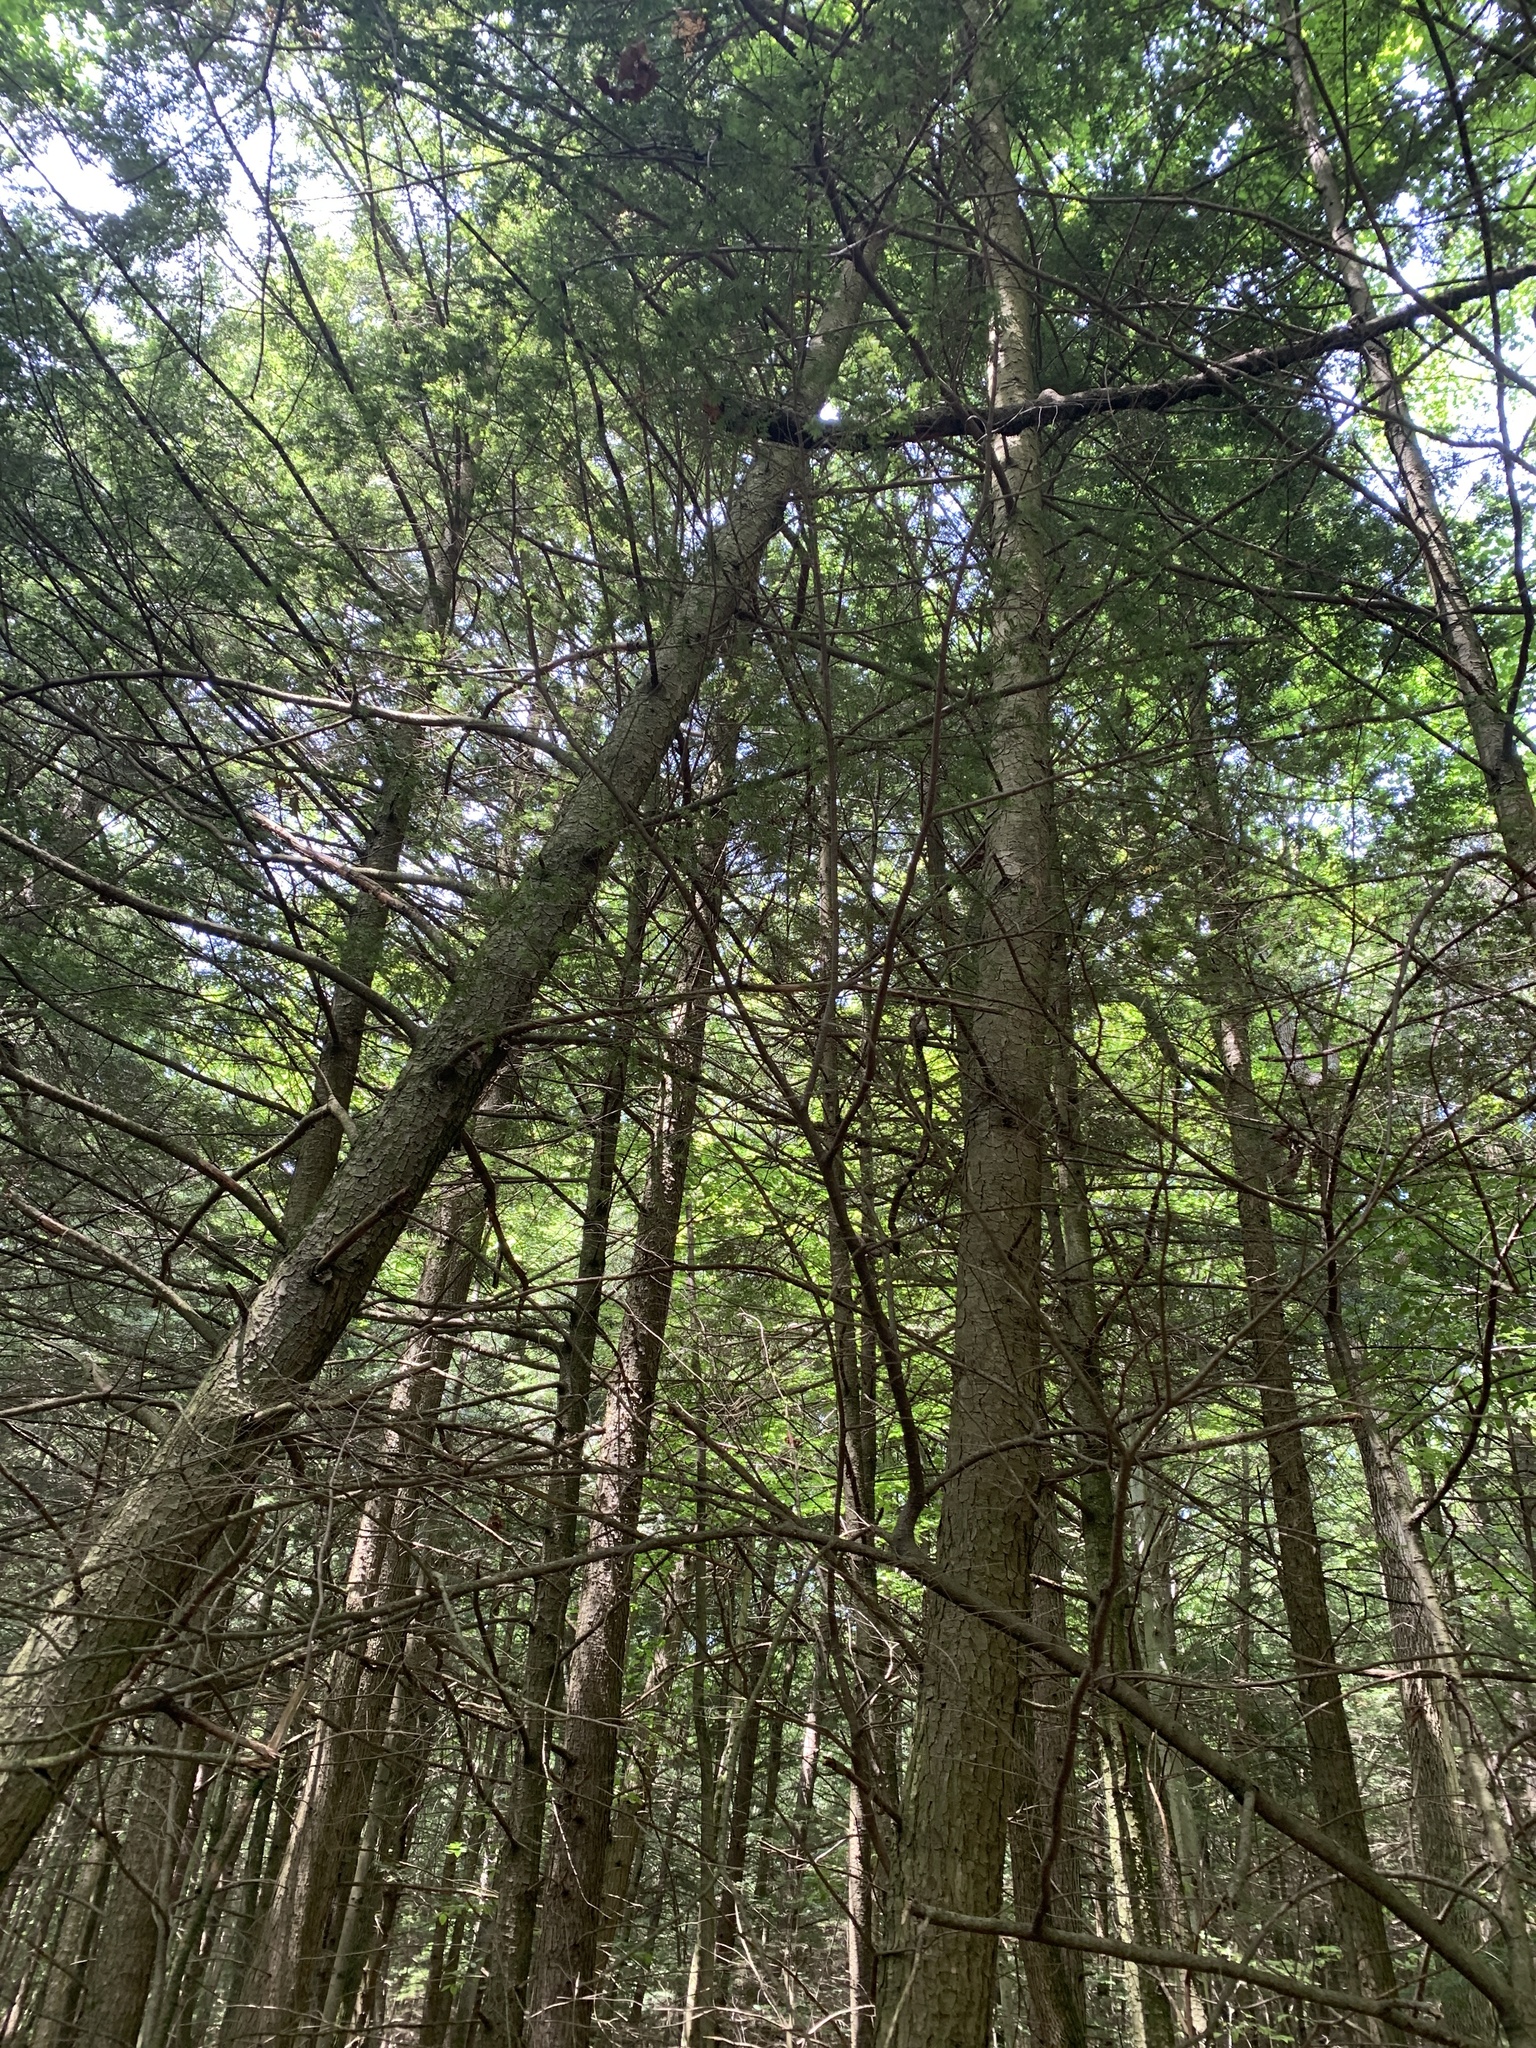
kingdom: Plantae
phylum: Tracheophyta
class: Pinopsida
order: Pinales
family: Pinaceae
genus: Tsuga
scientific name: Tsuga canadensis
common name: Eastern hemlock
